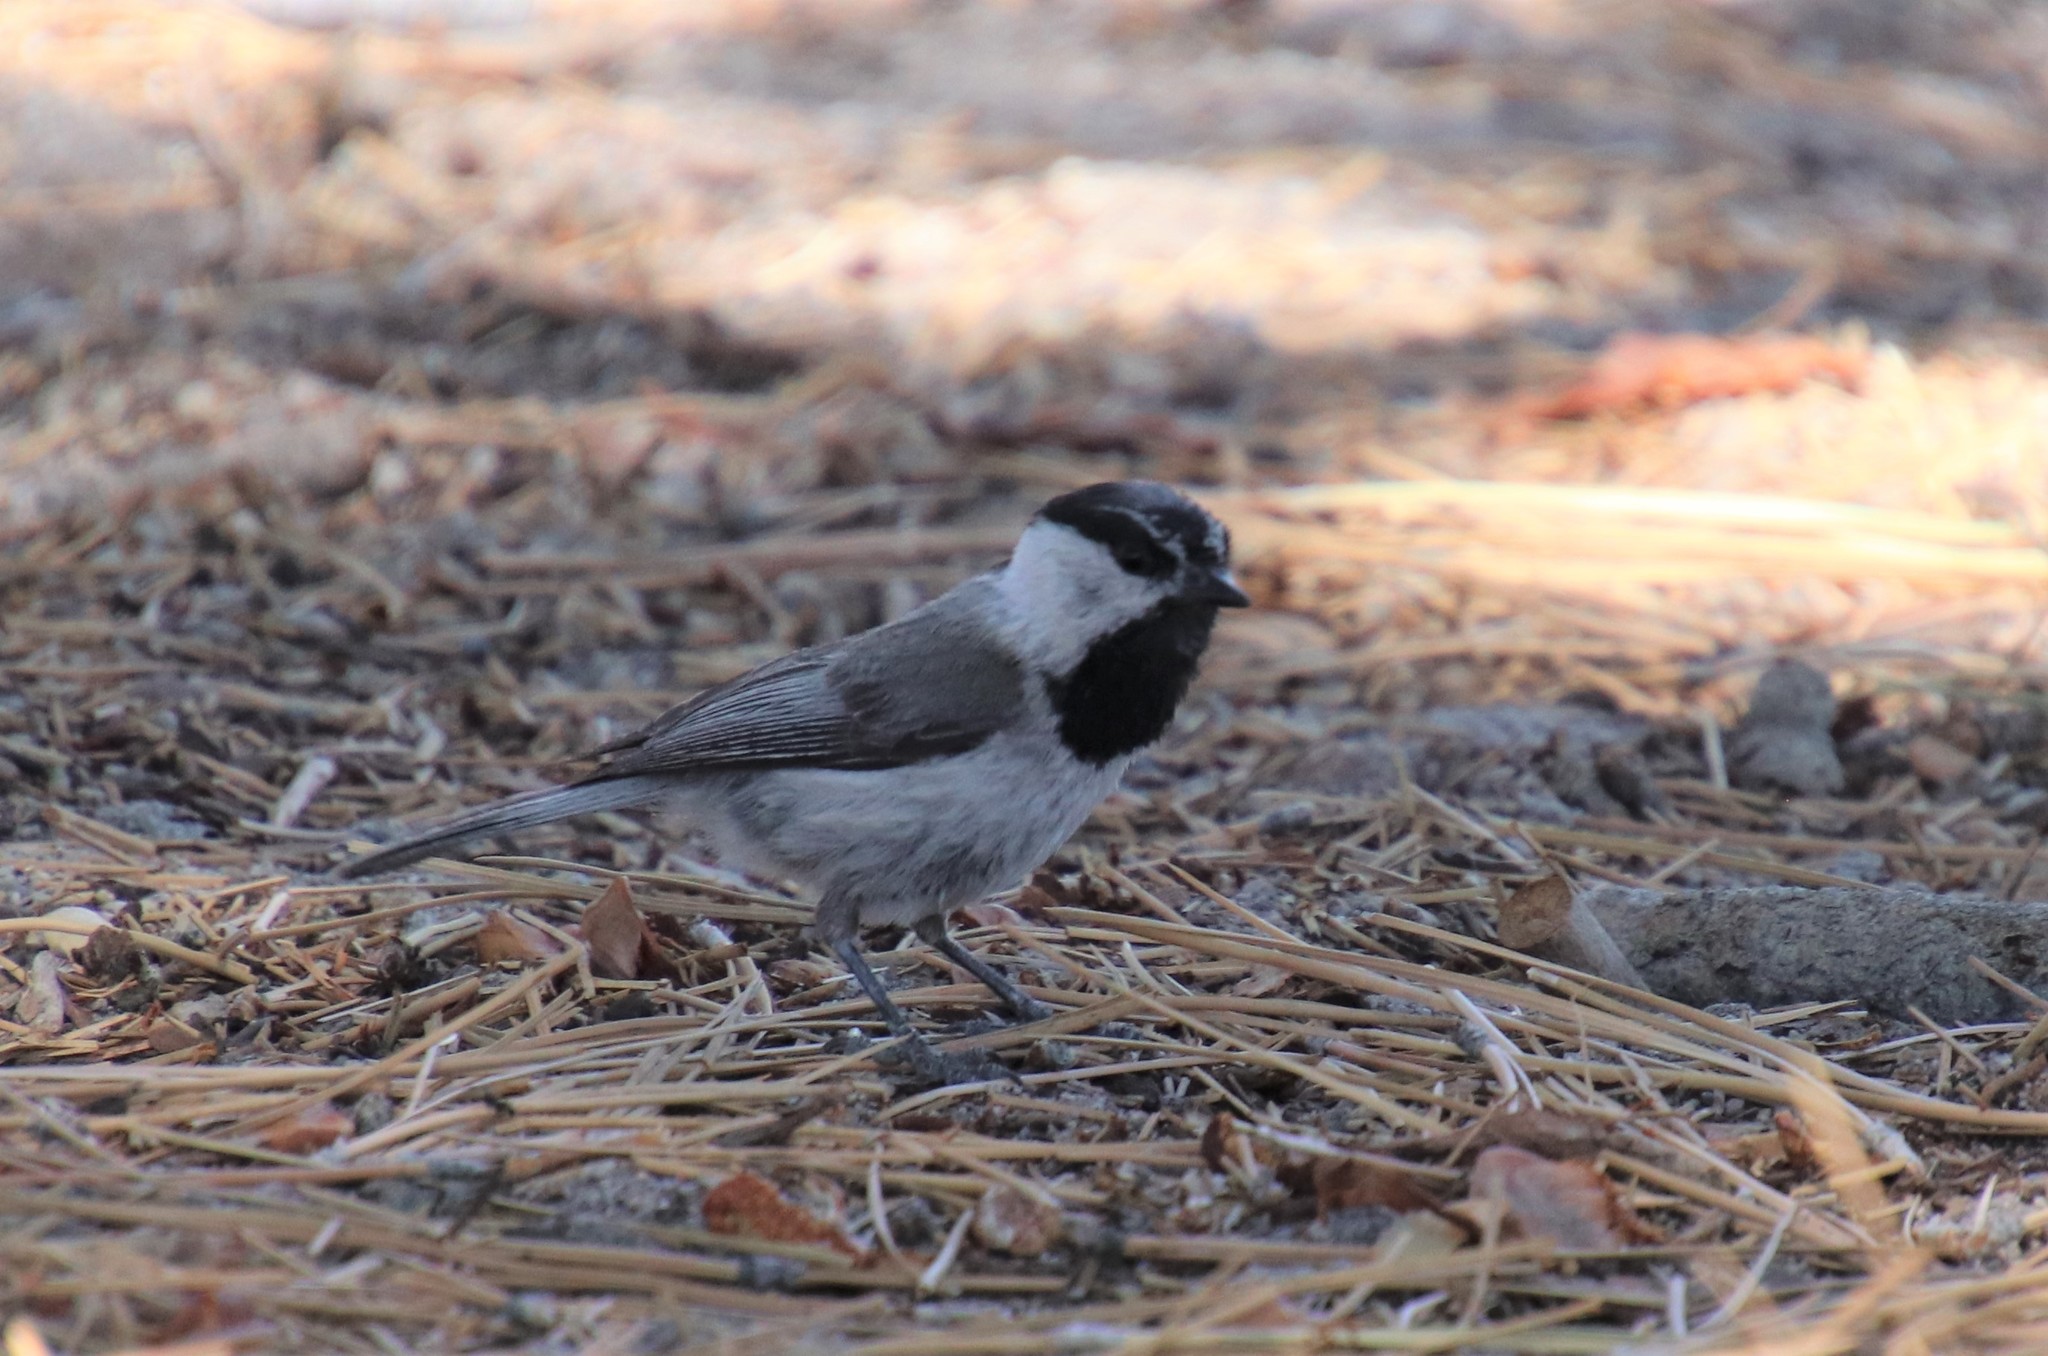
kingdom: Animalia
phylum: Chordata
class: Aves
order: Passeriformes
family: Paridae
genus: Poecile
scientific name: Poecile gambeli
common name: Mountain chickadee
